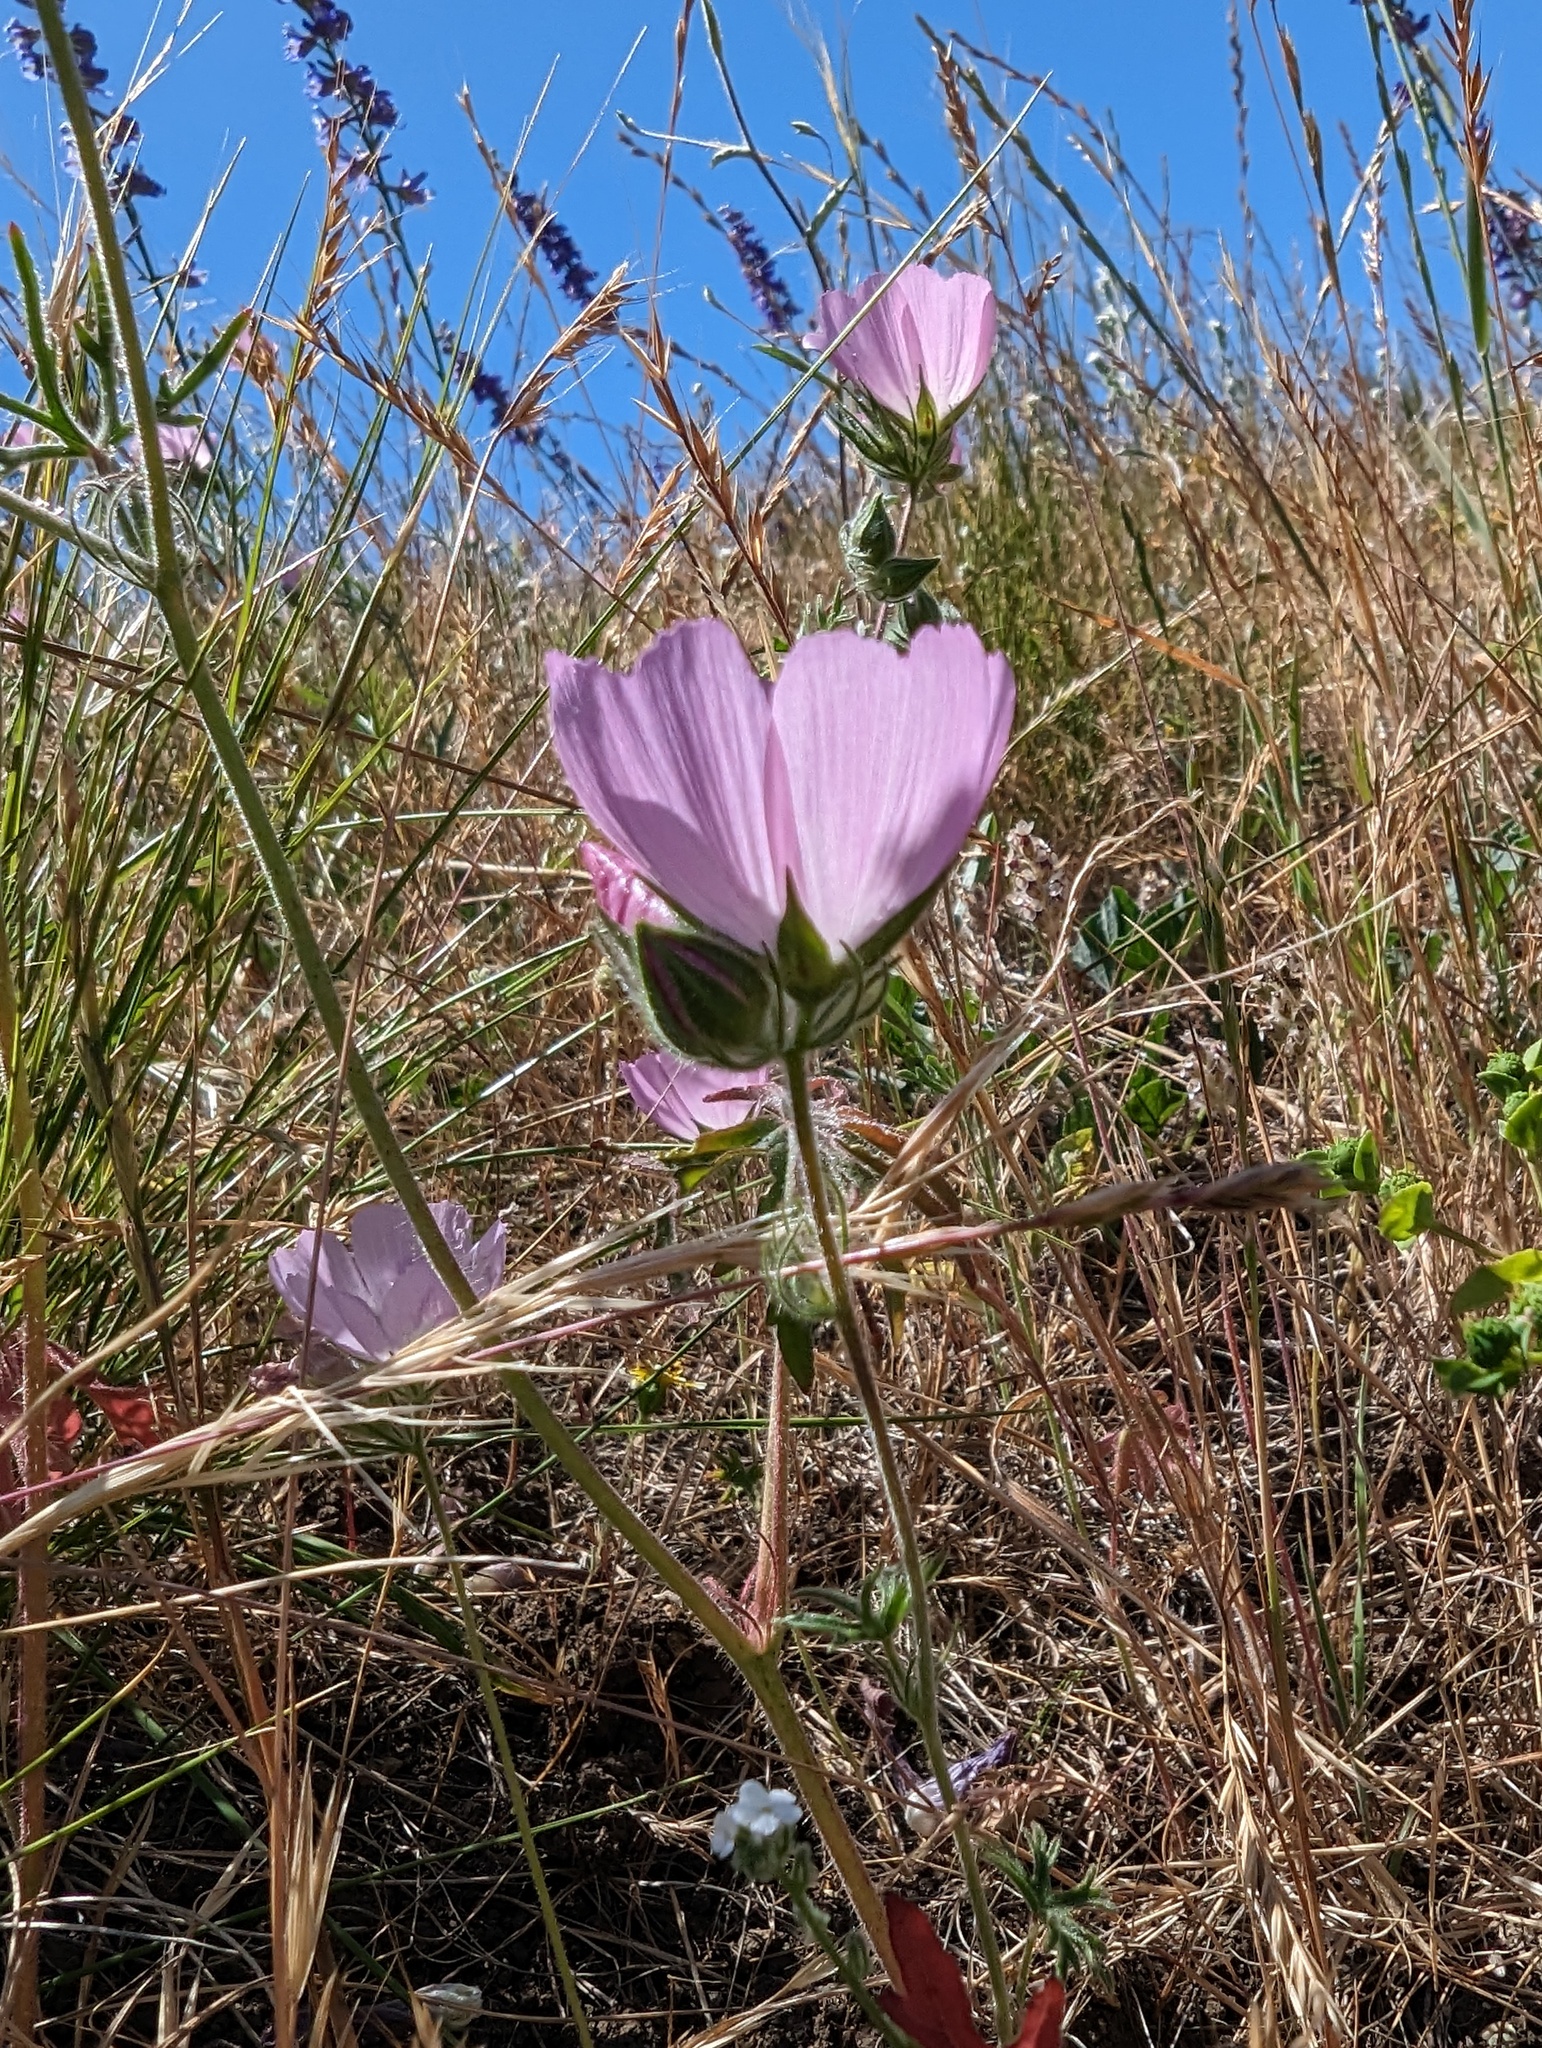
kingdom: Plantae
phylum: Tracheophyta
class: Magnoliopsida
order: Malvales
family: Malvaceae
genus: Sidalcea
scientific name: Sidalcea diploscypha
